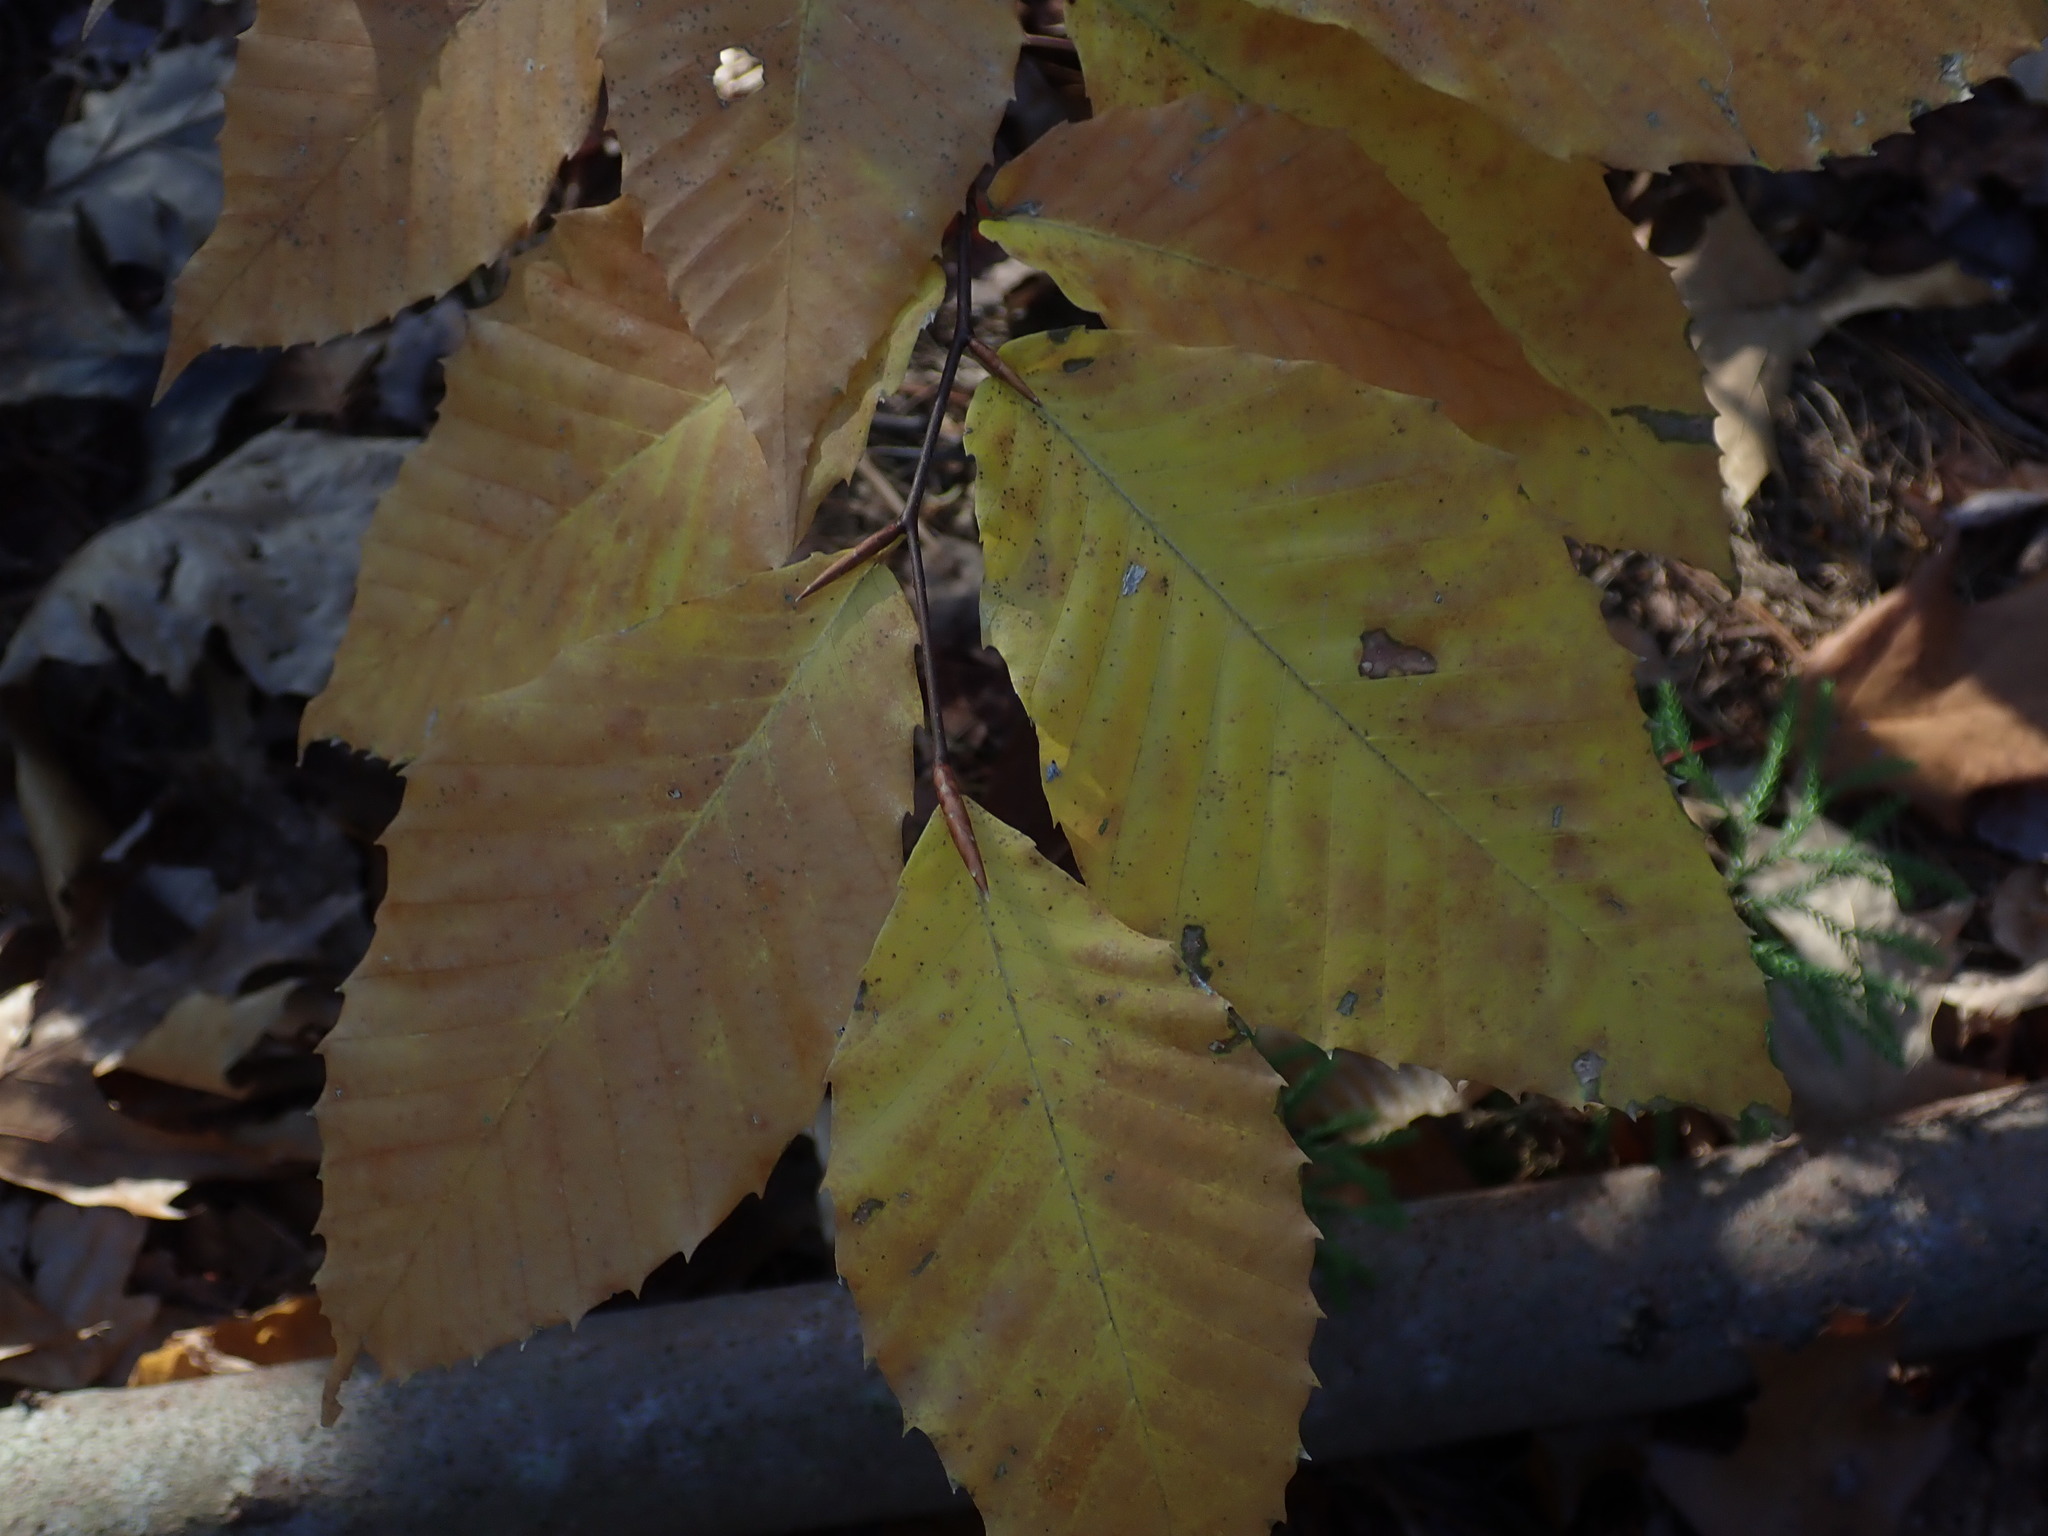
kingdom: Plantae
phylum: Tracheophyta
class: Magnoliopsida
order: Fagales
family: Fagaceae
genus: Fagus
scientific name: Fagus grandifolia
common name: American beech
